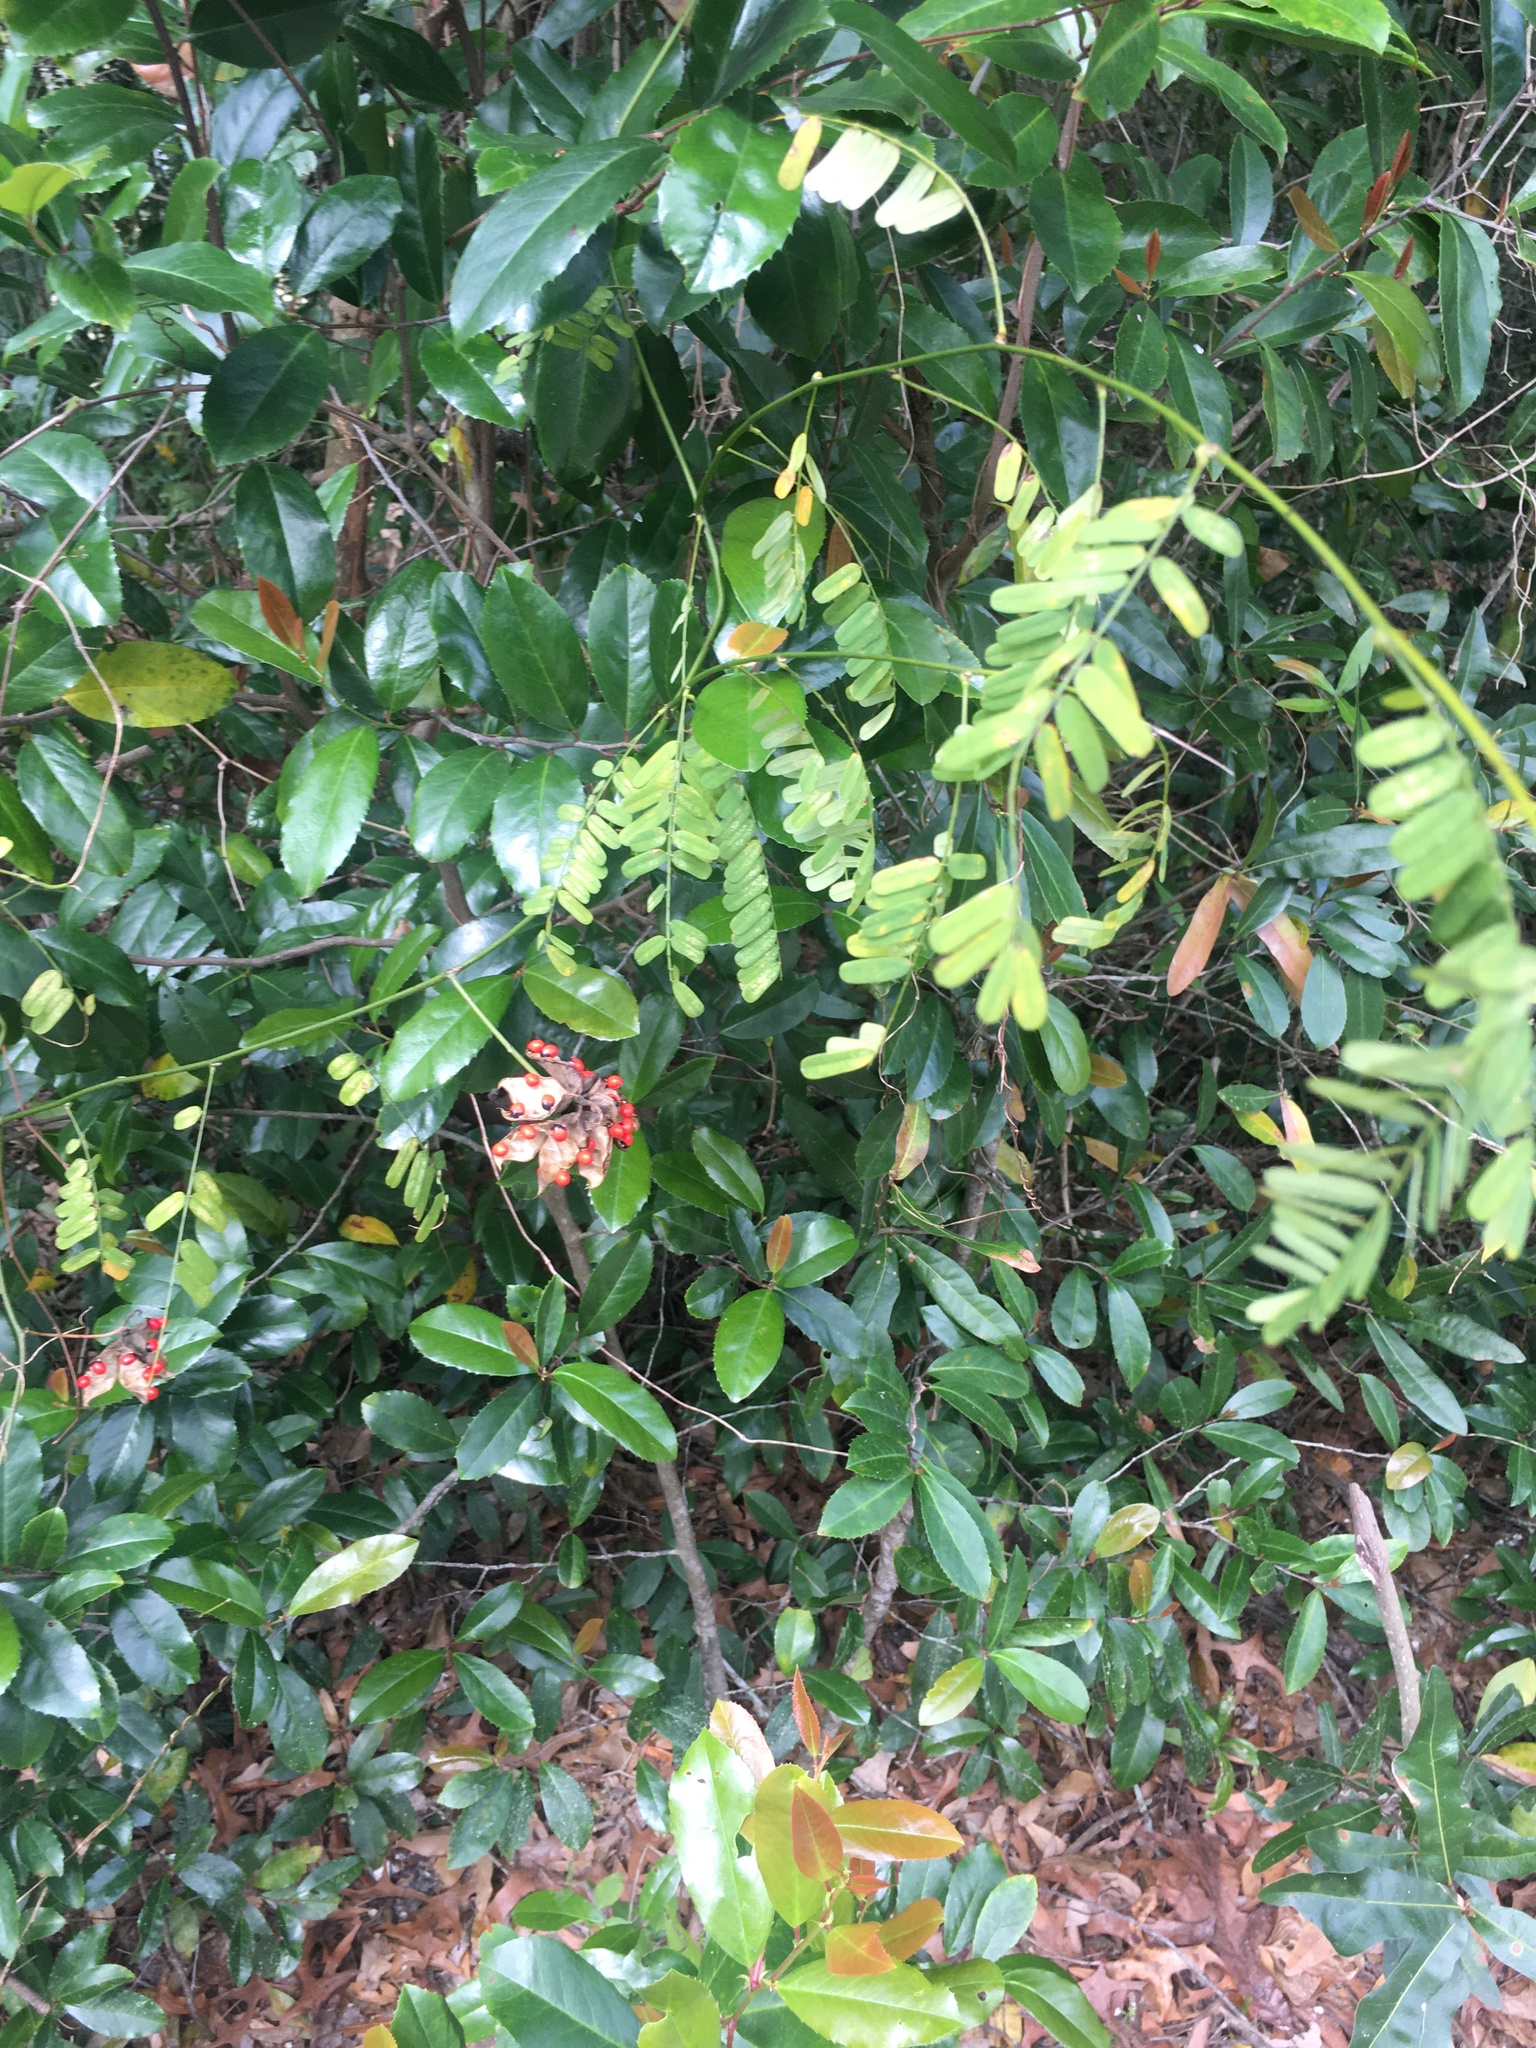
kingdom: Plantae
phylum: Tracheophyta
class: Magnoliopsida
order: Fabales
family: Fabaceae
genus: Abrus
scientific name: Abrus precatorius
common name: Rosarypea
